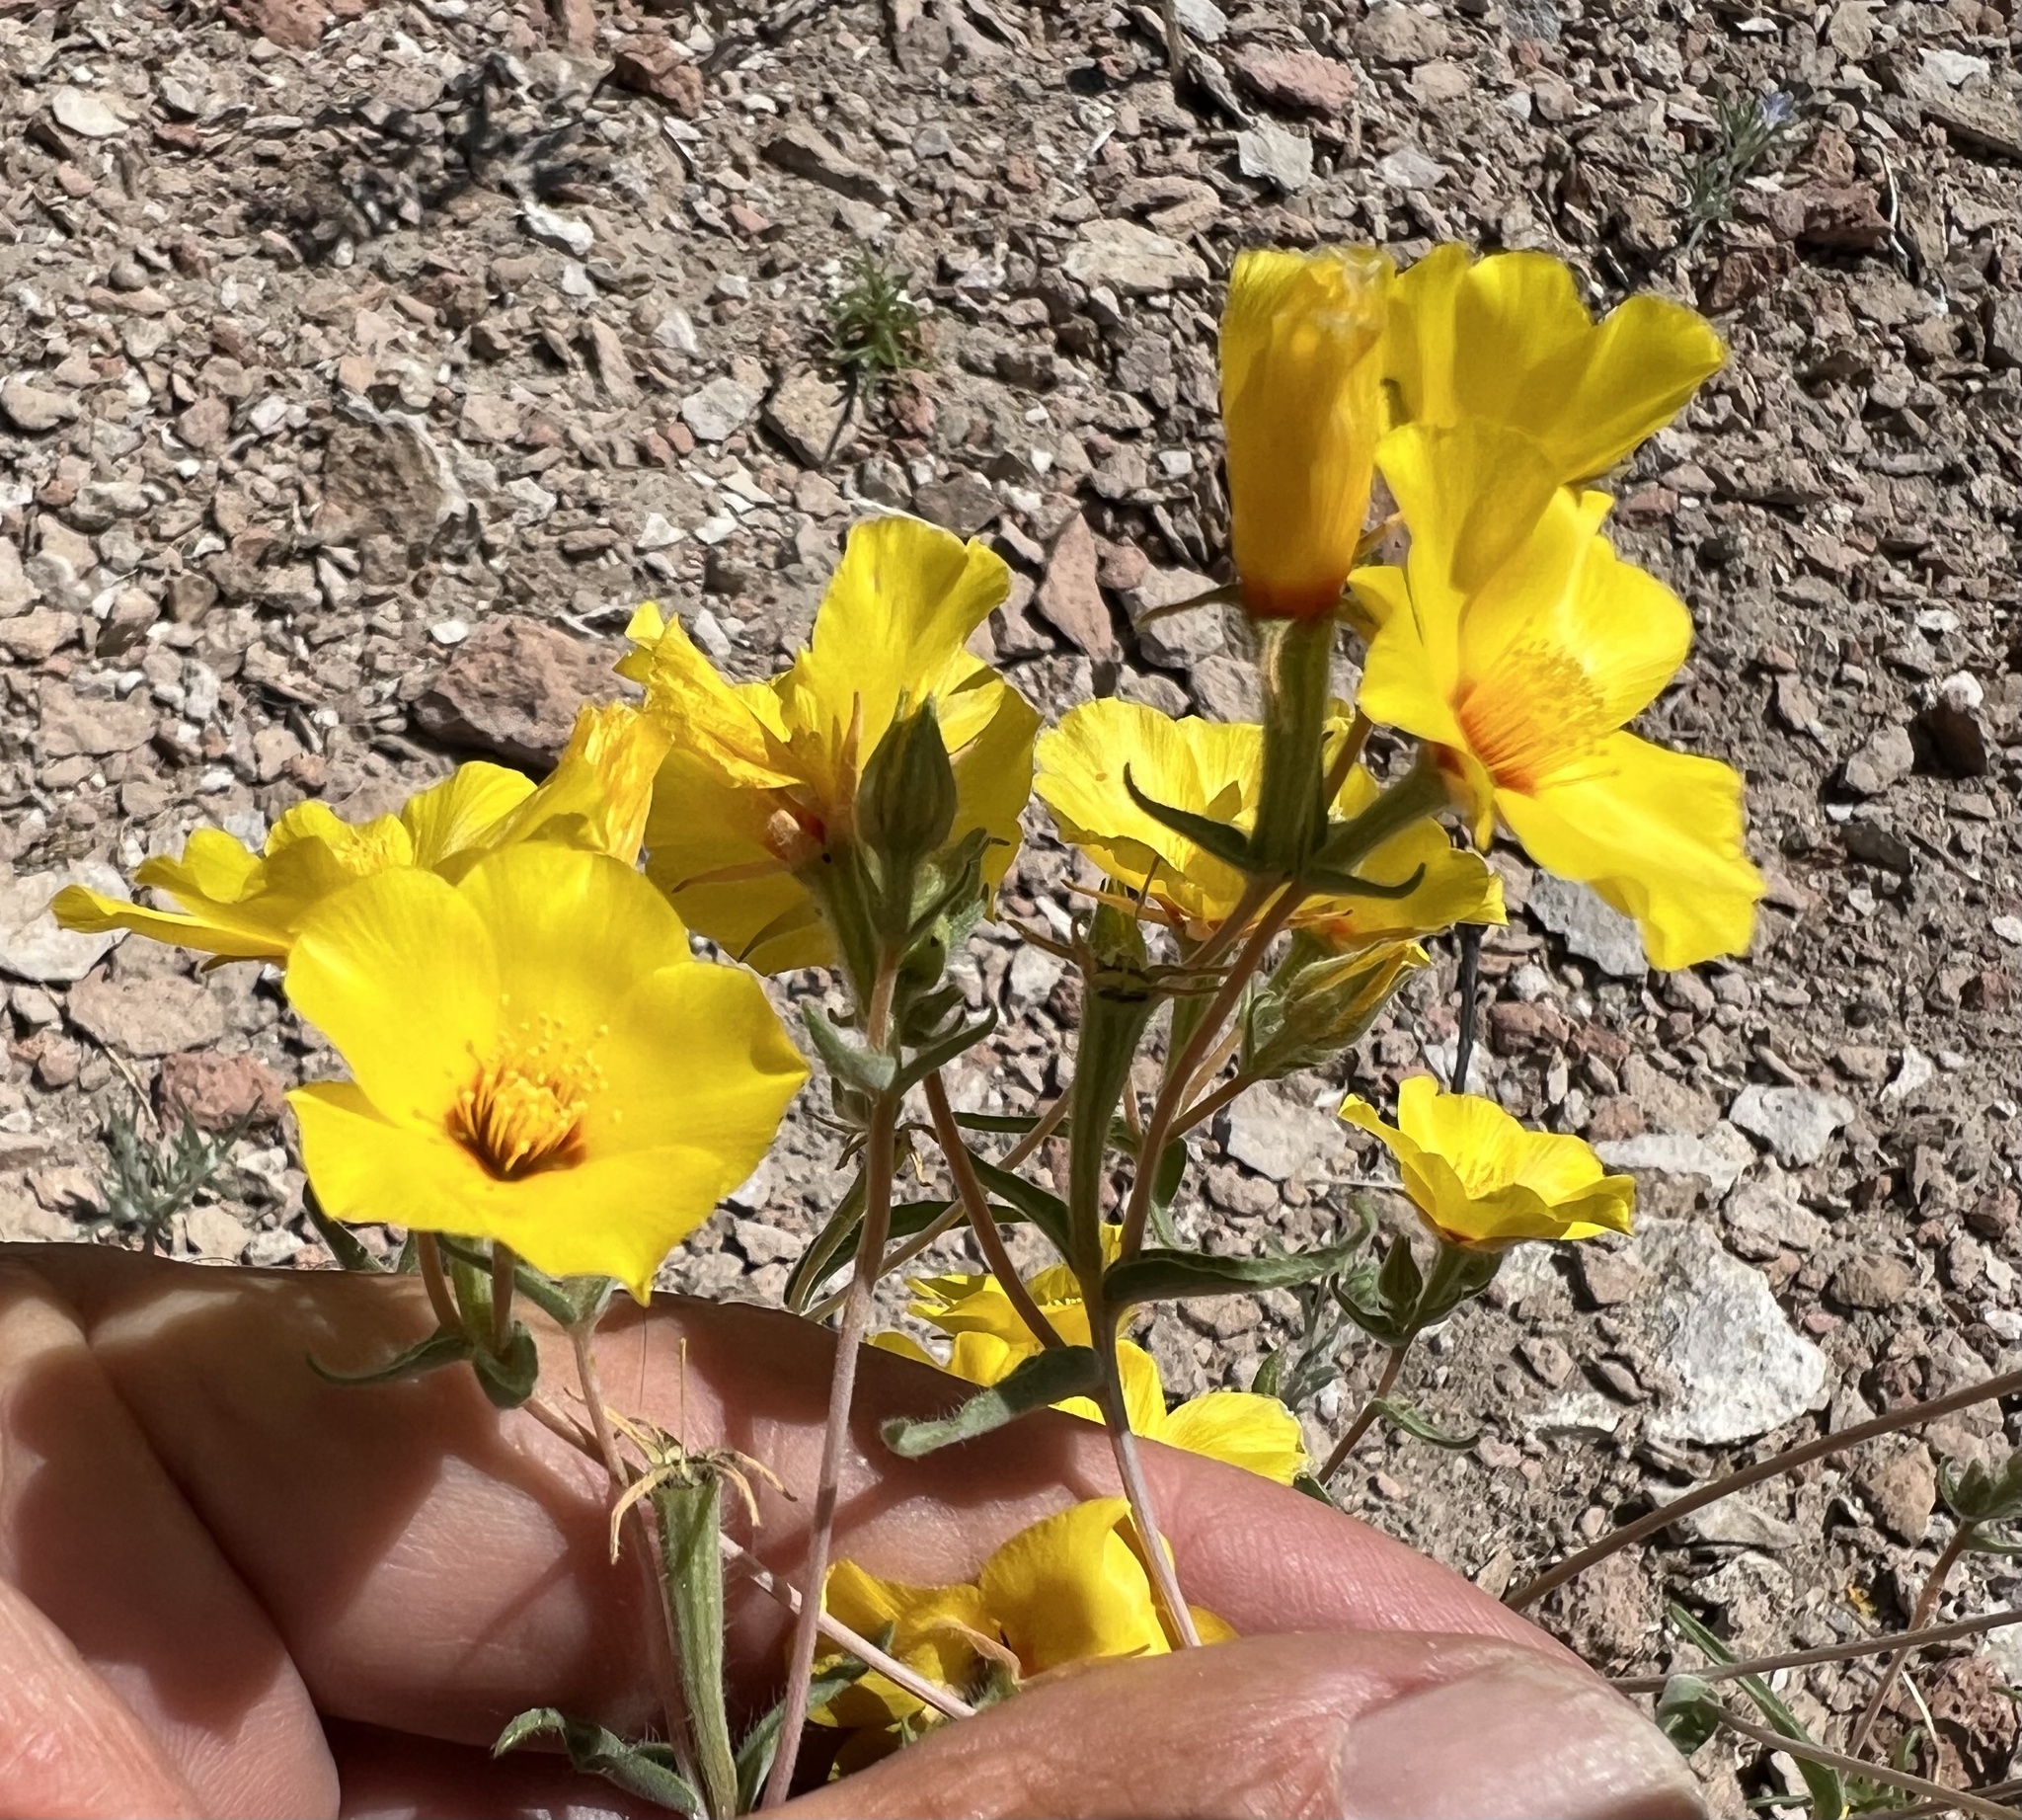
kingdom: Plantae
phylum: Tracheophyta
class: Magnoliopsida
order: Cornales
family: Loasaceae
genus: Mentzelia
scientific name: Mentzelia nitens
